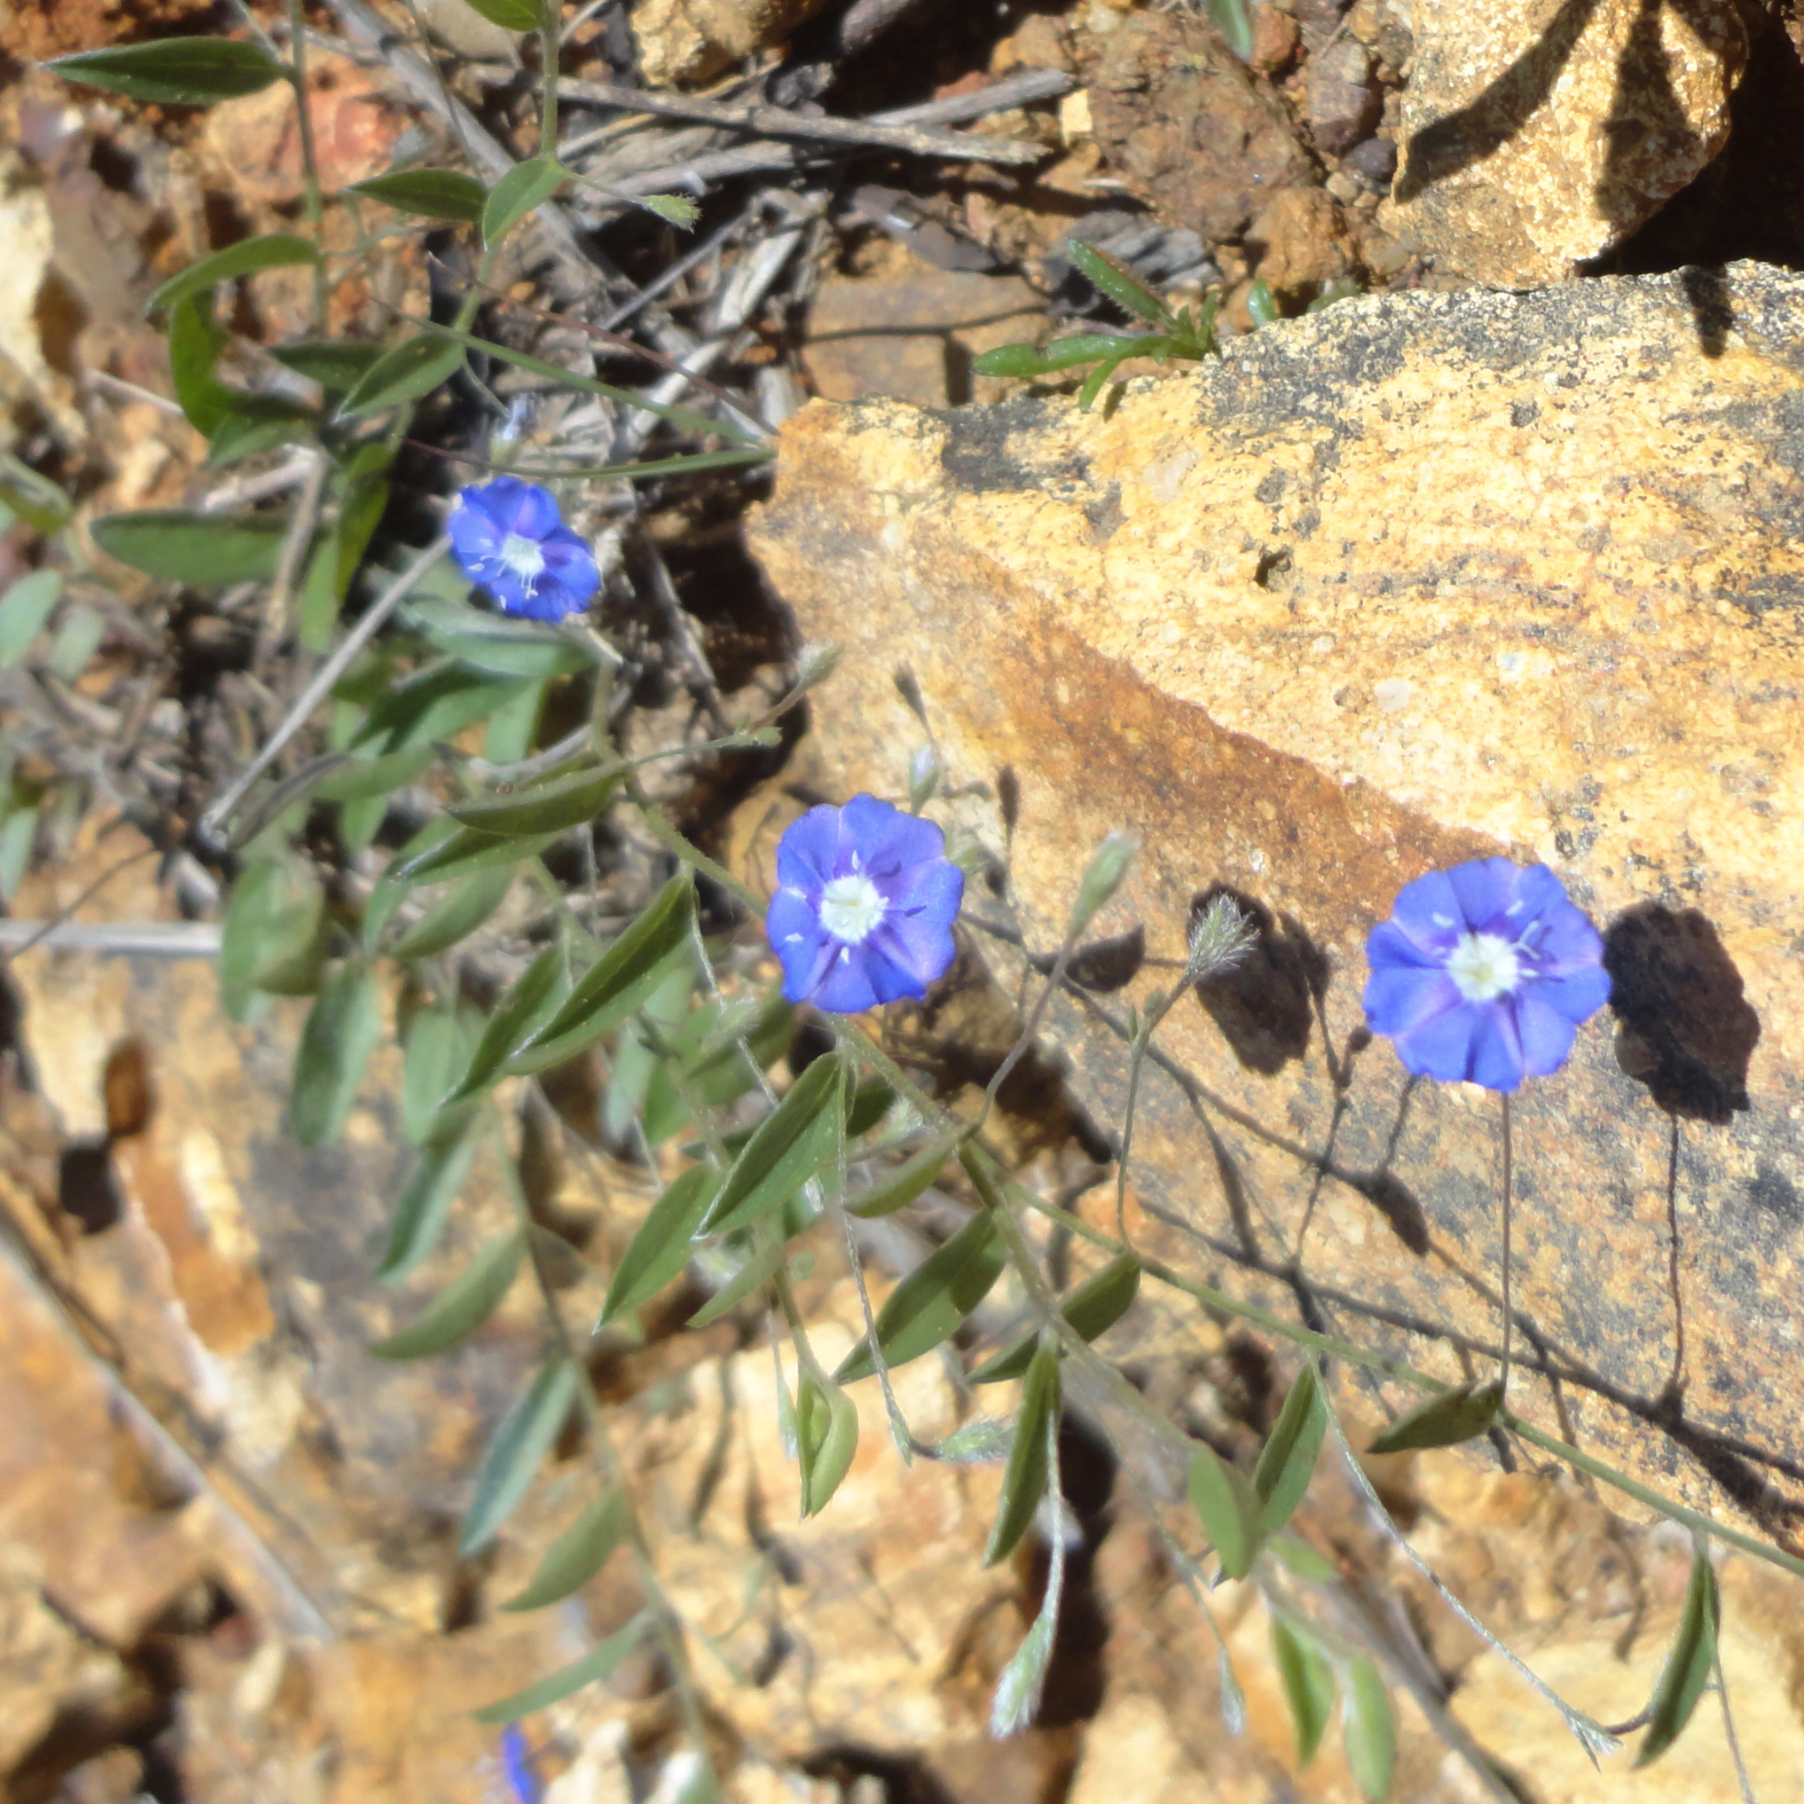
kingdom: Plantae
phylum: Tracheophyta
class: Magnoliopsida
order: Solanales
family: Convolvulaceae
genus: Evolvulus
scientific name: Evolvulus alsinoides
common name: Slender dwarf morning-glory
